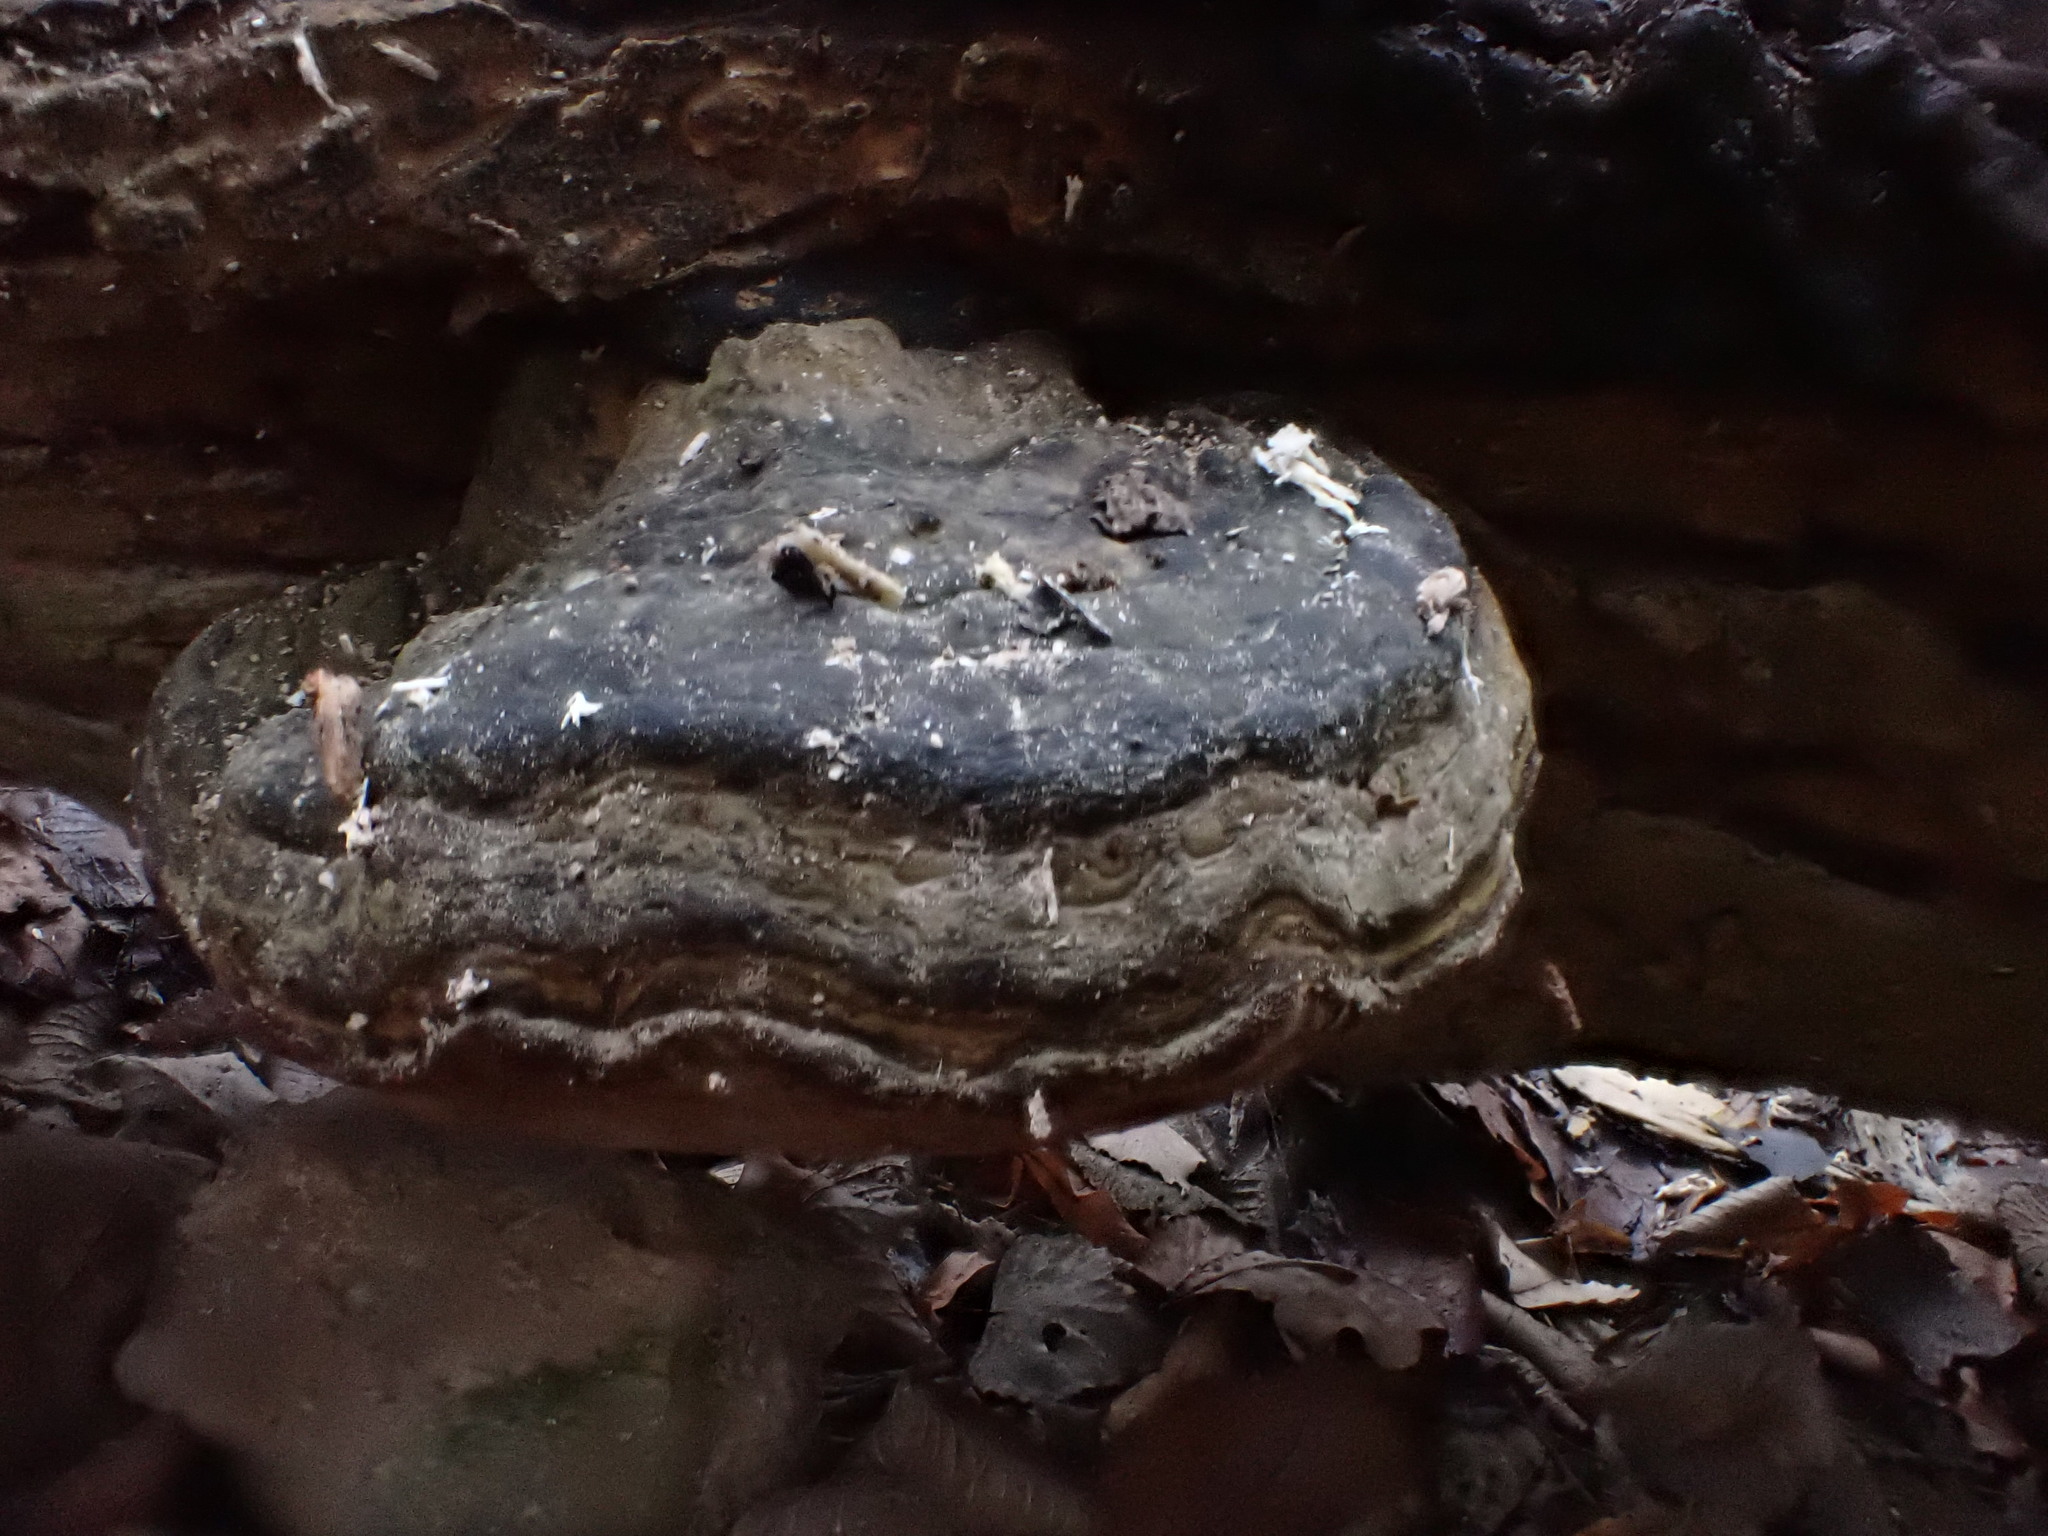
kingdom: Fungi
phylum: Basidiomycota
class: Agaricomycetes
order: Polyporales
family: Polyporaceae
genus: Fomes
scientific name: Fomes fomentarius
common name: Hoof fungus
